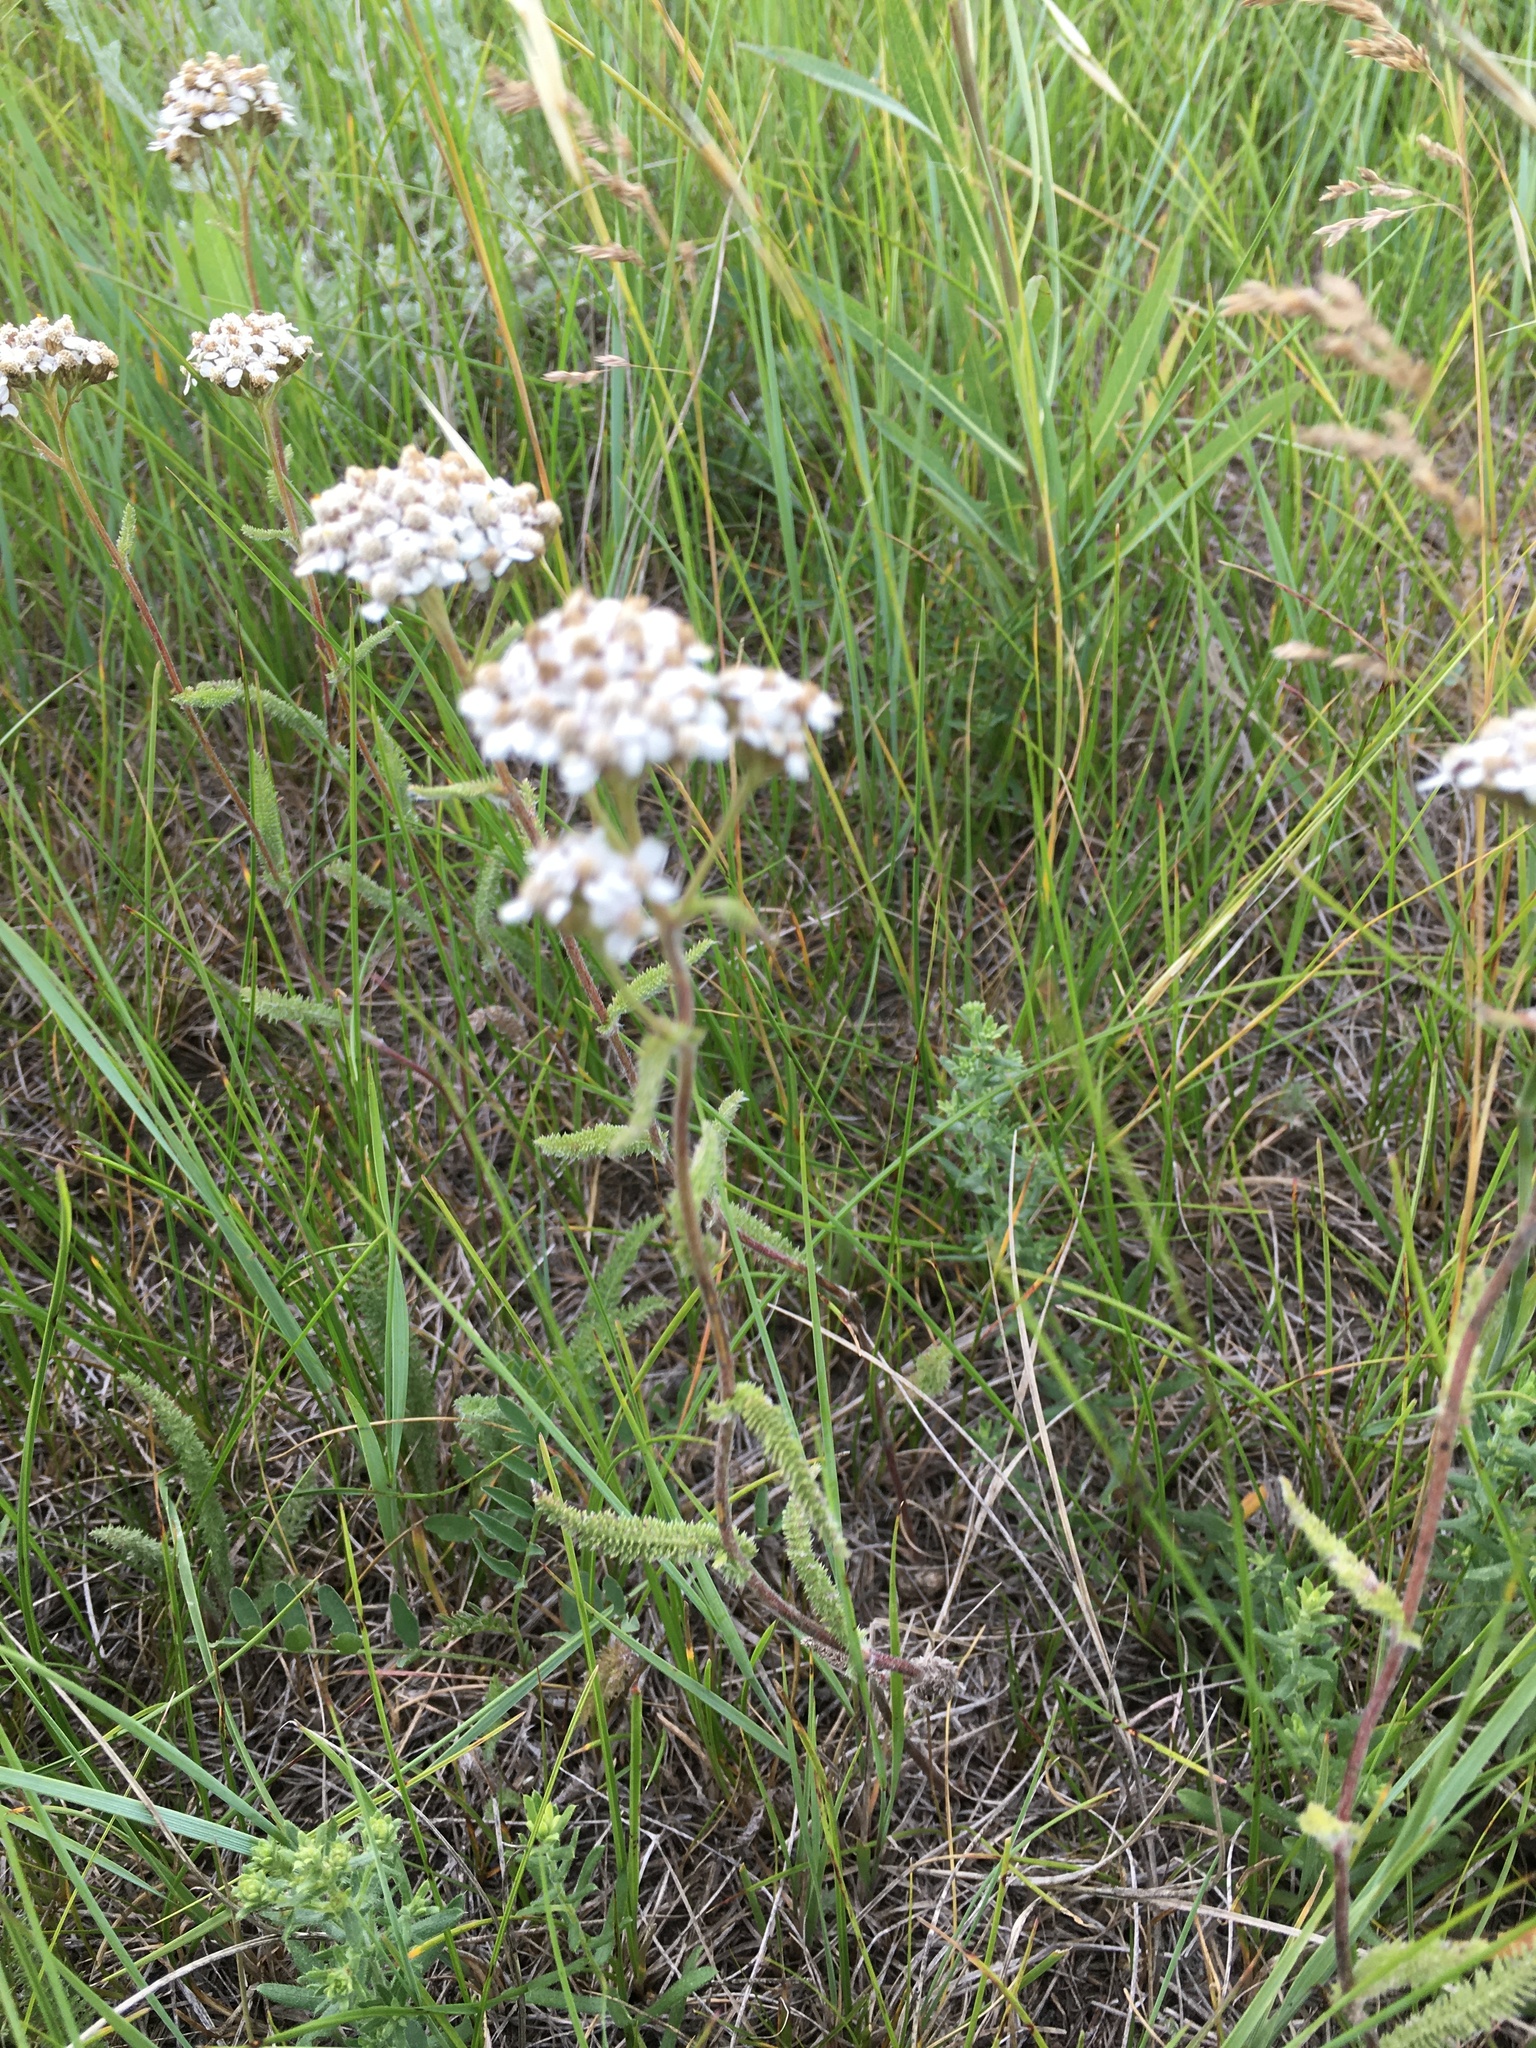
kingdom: Plantae
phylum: Tracheophyta
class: Magnoliopsida
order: Asterales
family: Asteraceae
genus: Achillea
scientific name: Achillea millefolium
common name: Yarrow
